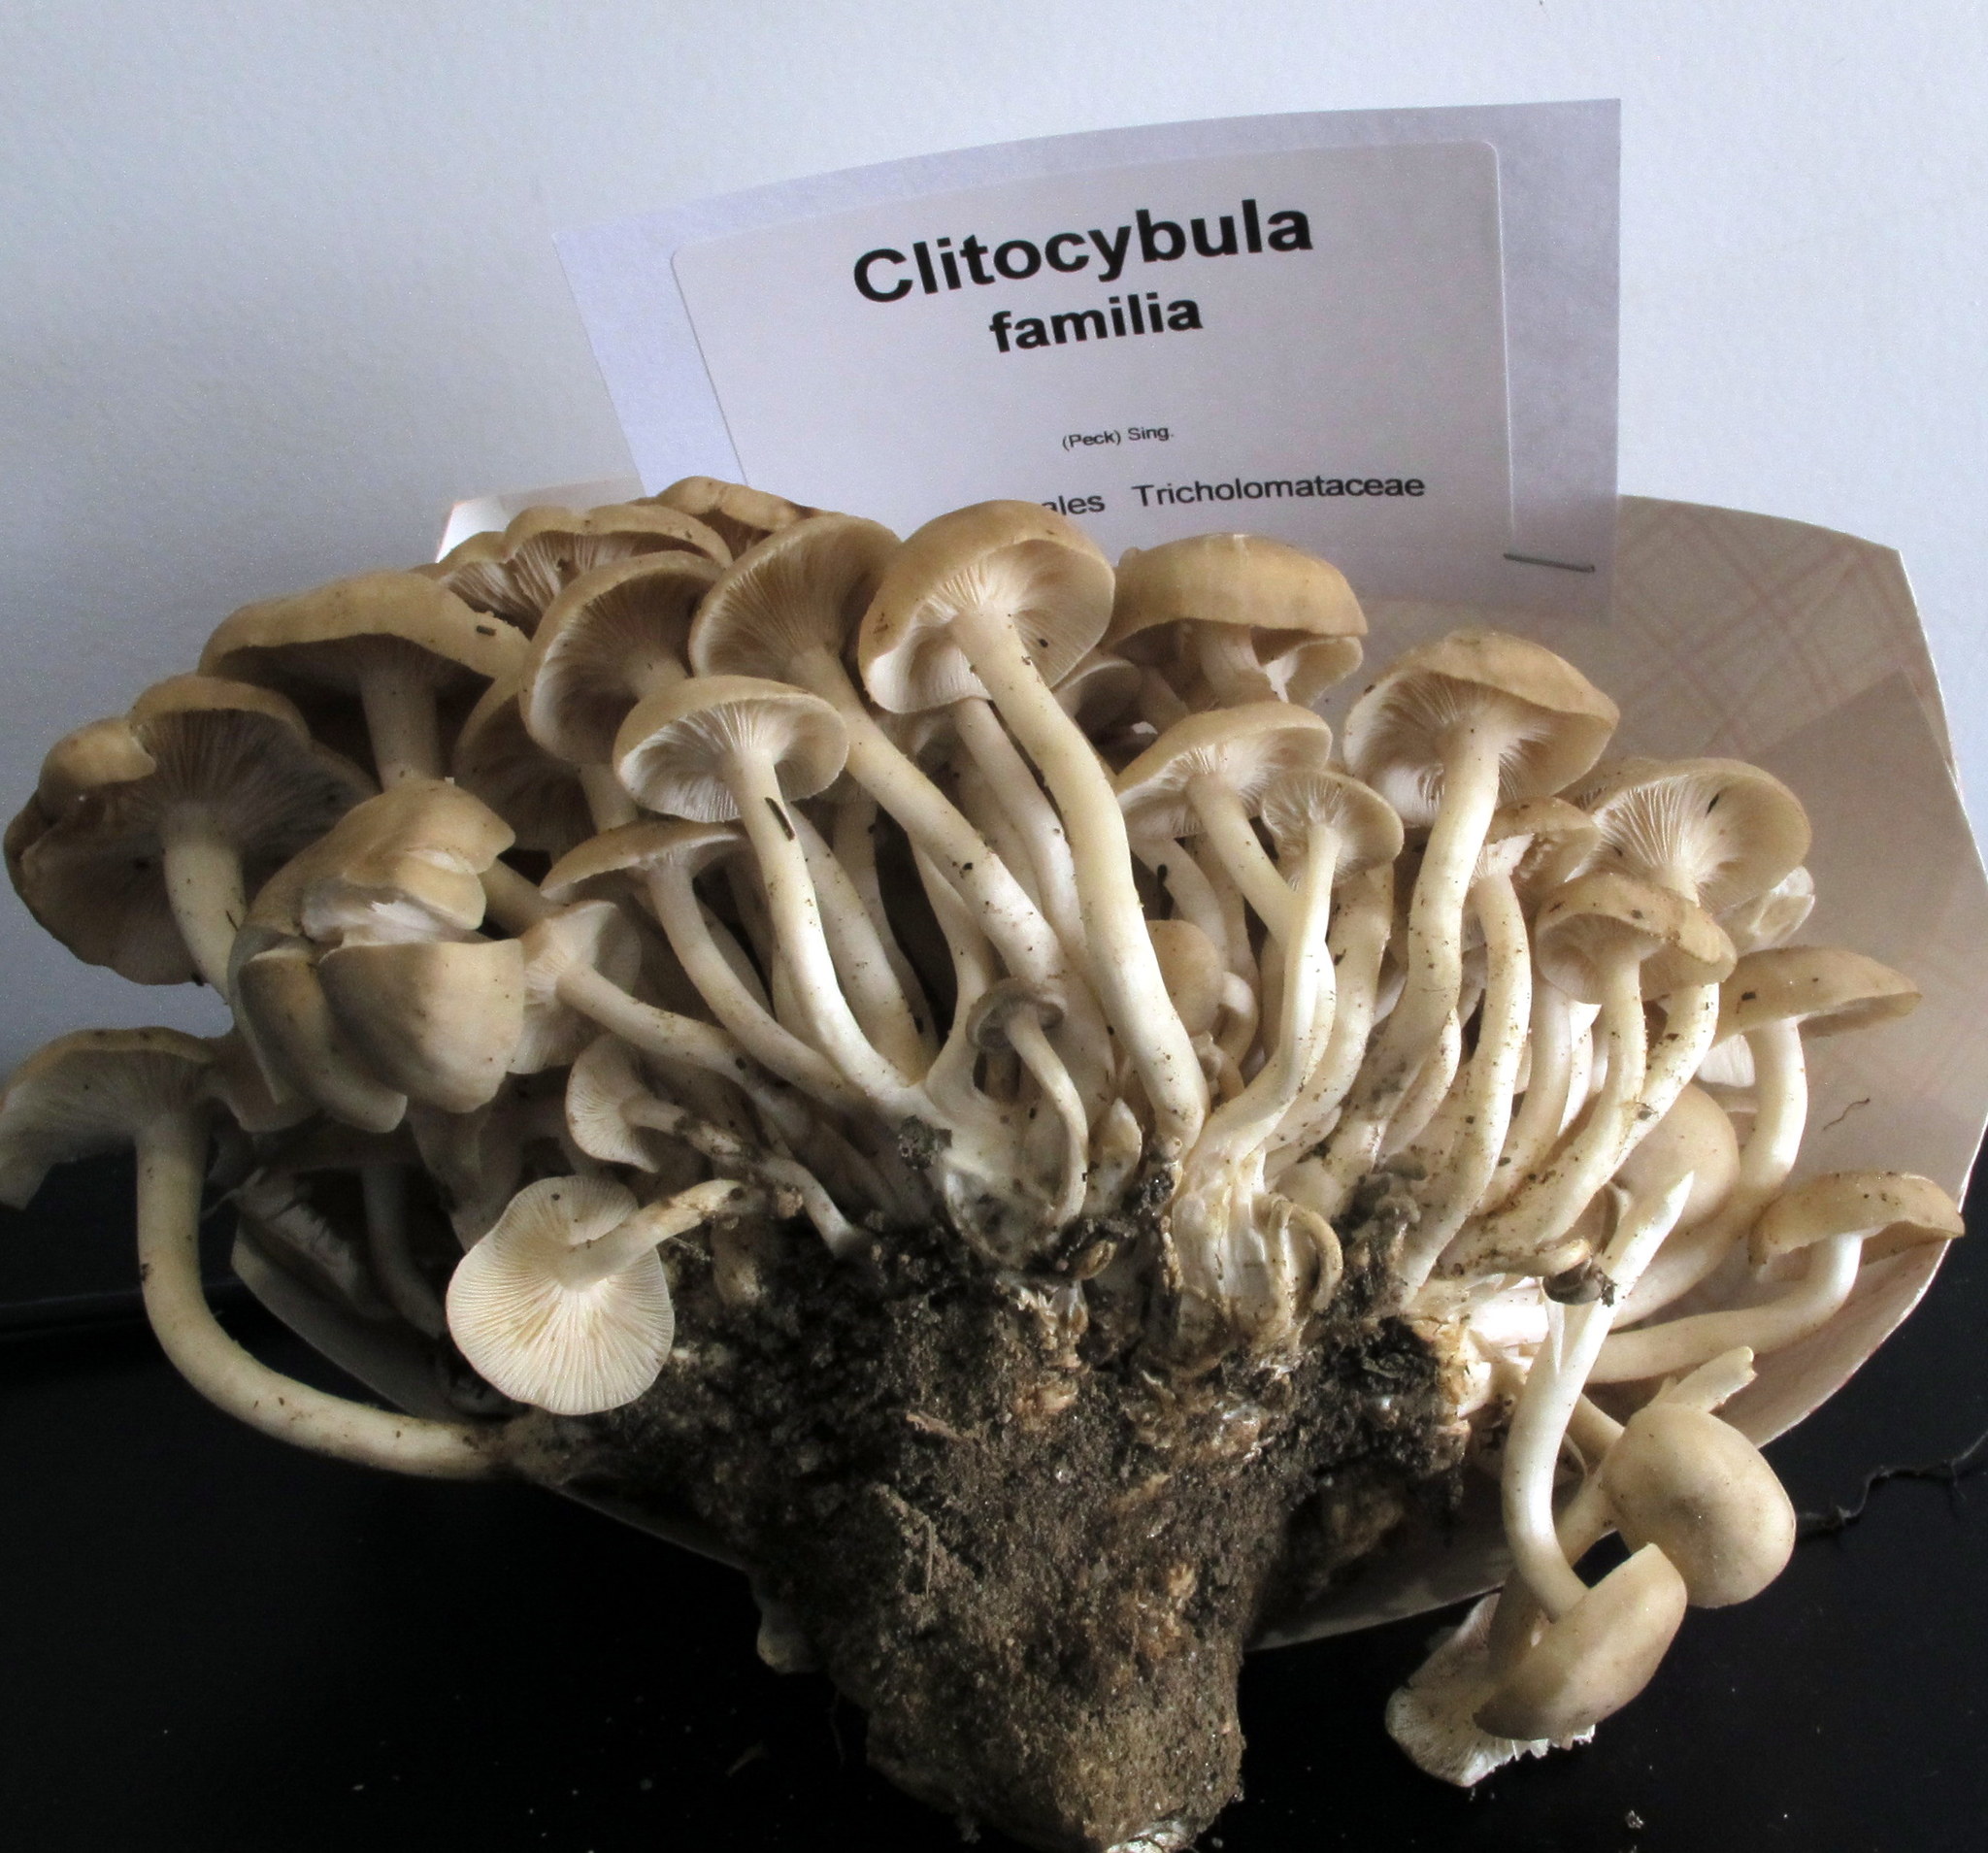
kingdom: Fungi
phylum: Basidiomycota
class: Agaricomycetes
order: Agaricales
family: Marasmiaceae
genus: Clitocybula
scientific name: Clitocybula familia
